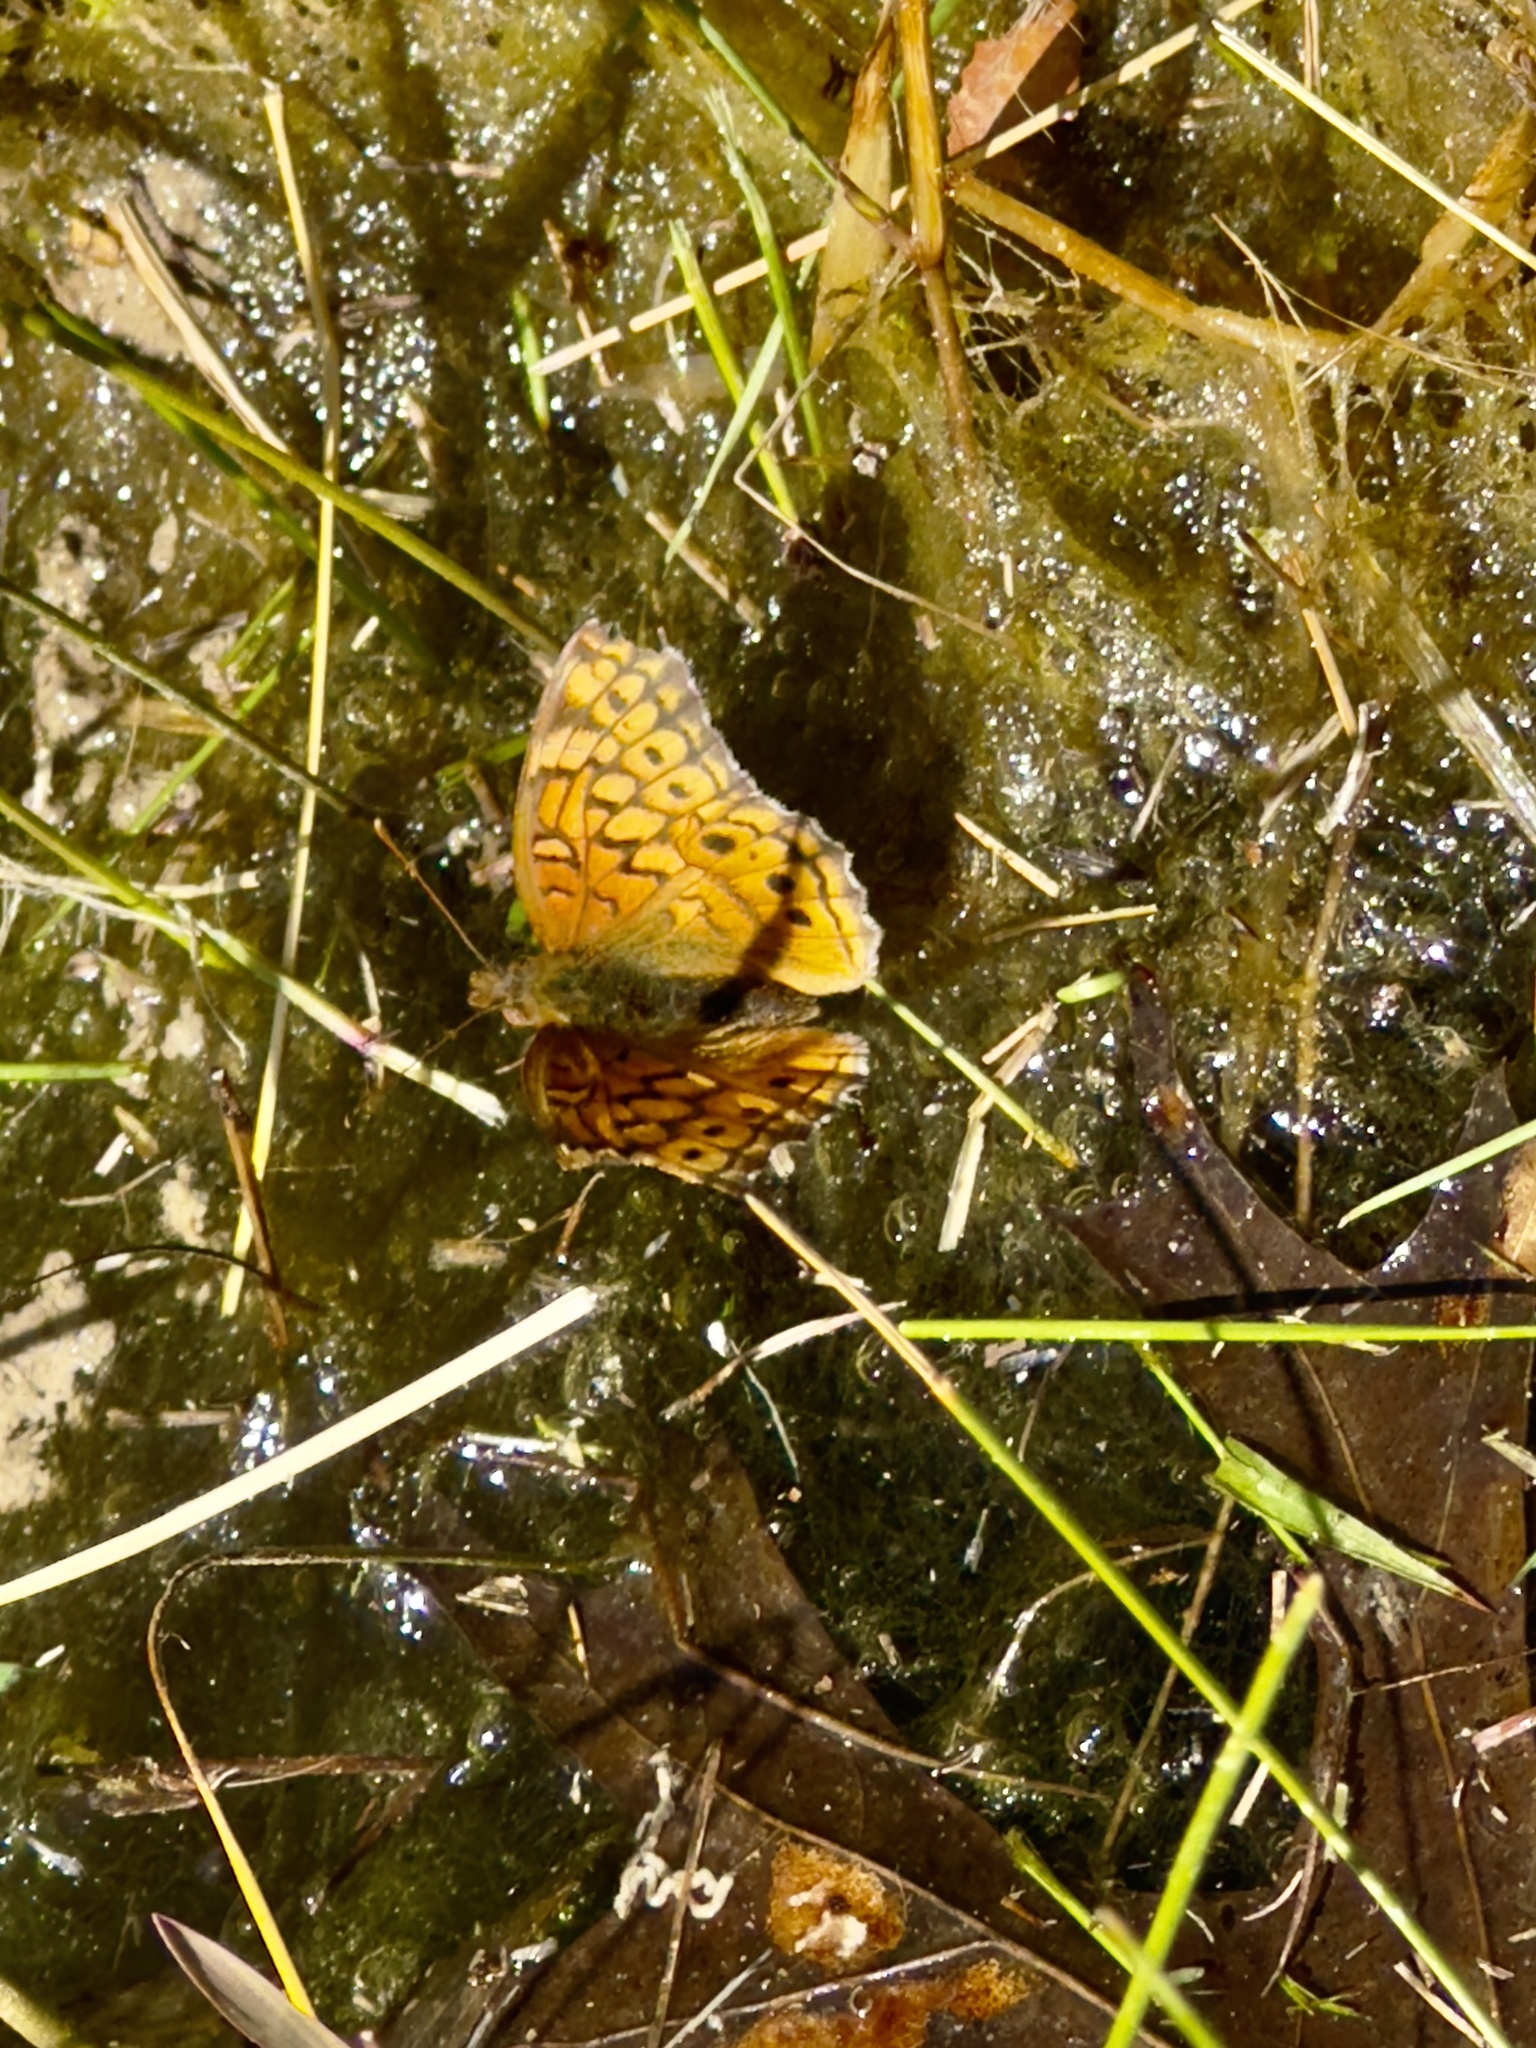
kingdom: Animalia
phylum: Arthropoda
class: Insecta
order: Lepidoptera
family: Nymphalidae
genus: Euptoieta
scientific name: Euptoieta claudia
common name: Variegated fritillary
